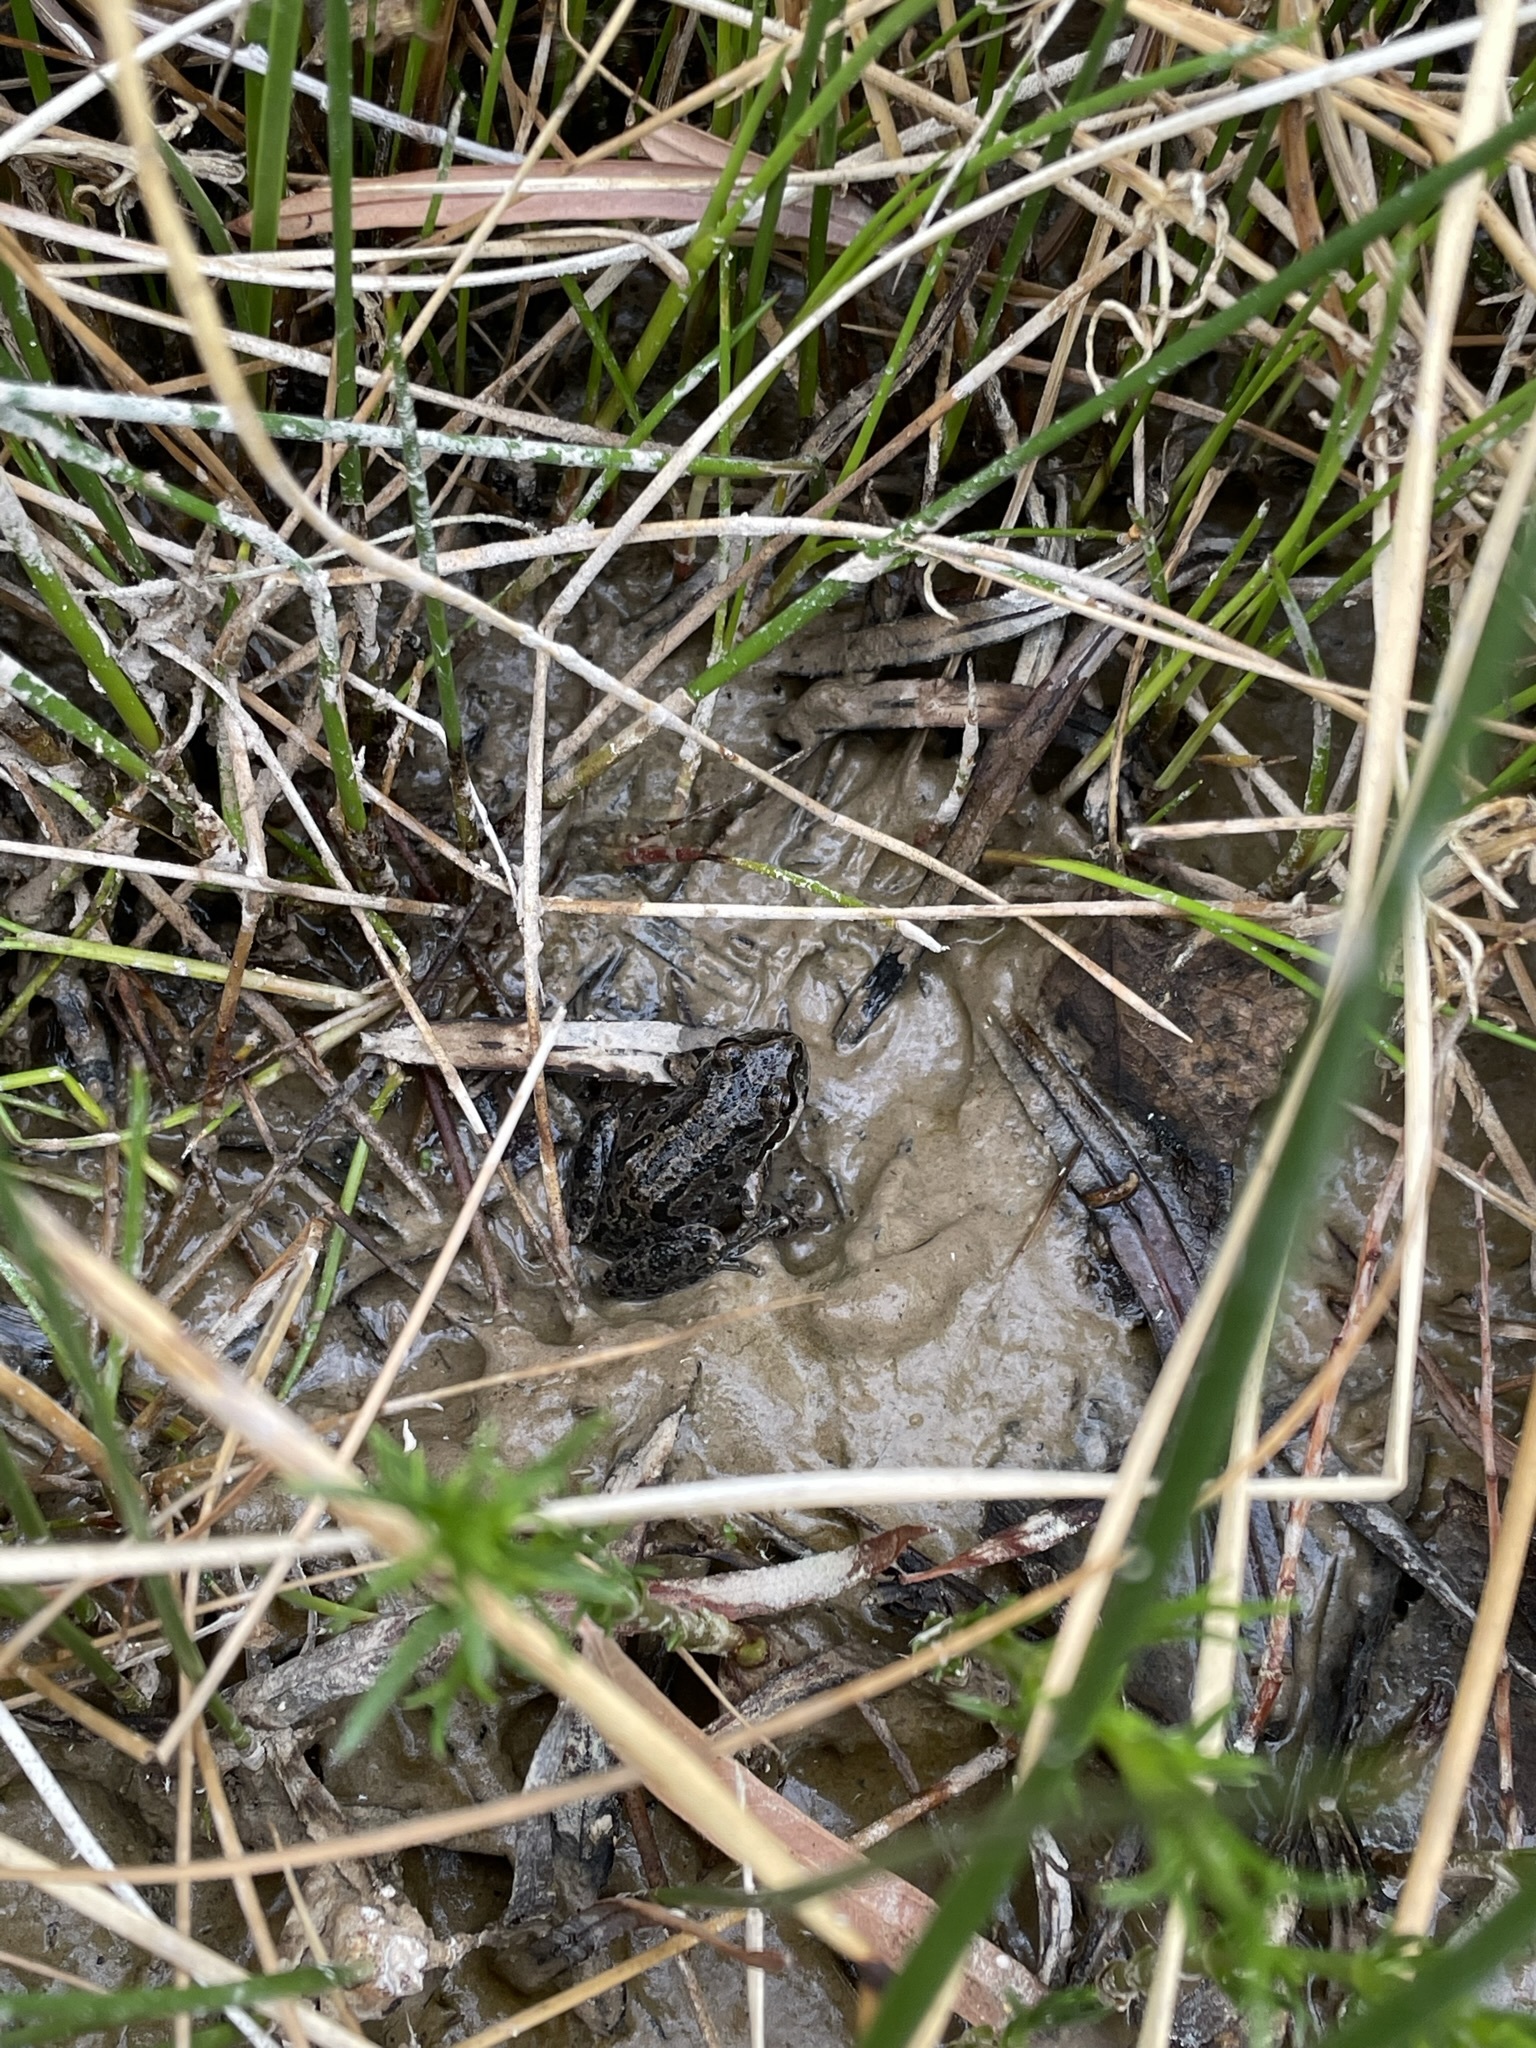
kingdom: Animalia
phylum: Chordata
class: Amphibia
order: Anura
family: Hylidae
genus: Pseudacris
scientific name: Pseudacris regilla
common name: Pacific chorus frog
